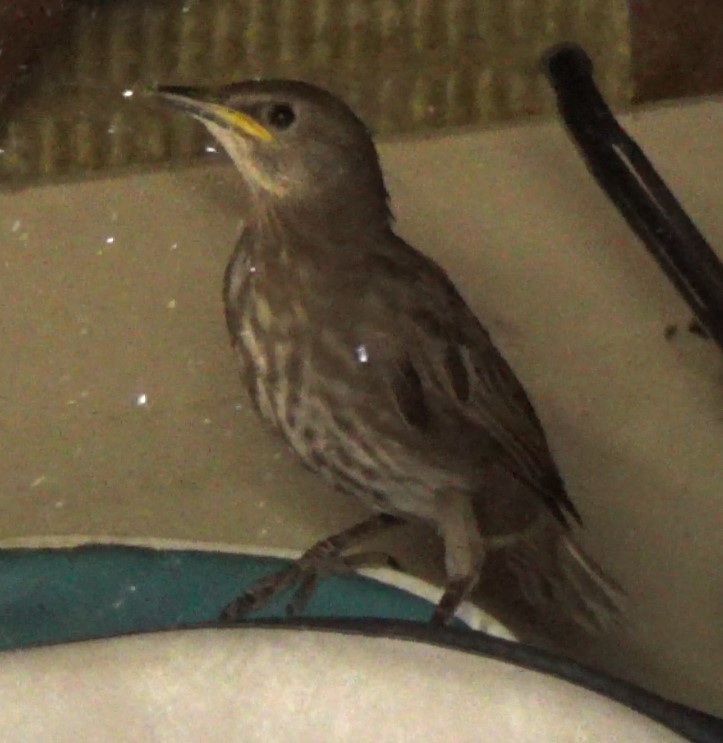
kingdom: Animalia
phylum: Chordata
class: Aves
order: Passeriformes
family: Sturnidae
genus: Sturnus
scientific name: Sturnus vulgaris
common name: Common starling
